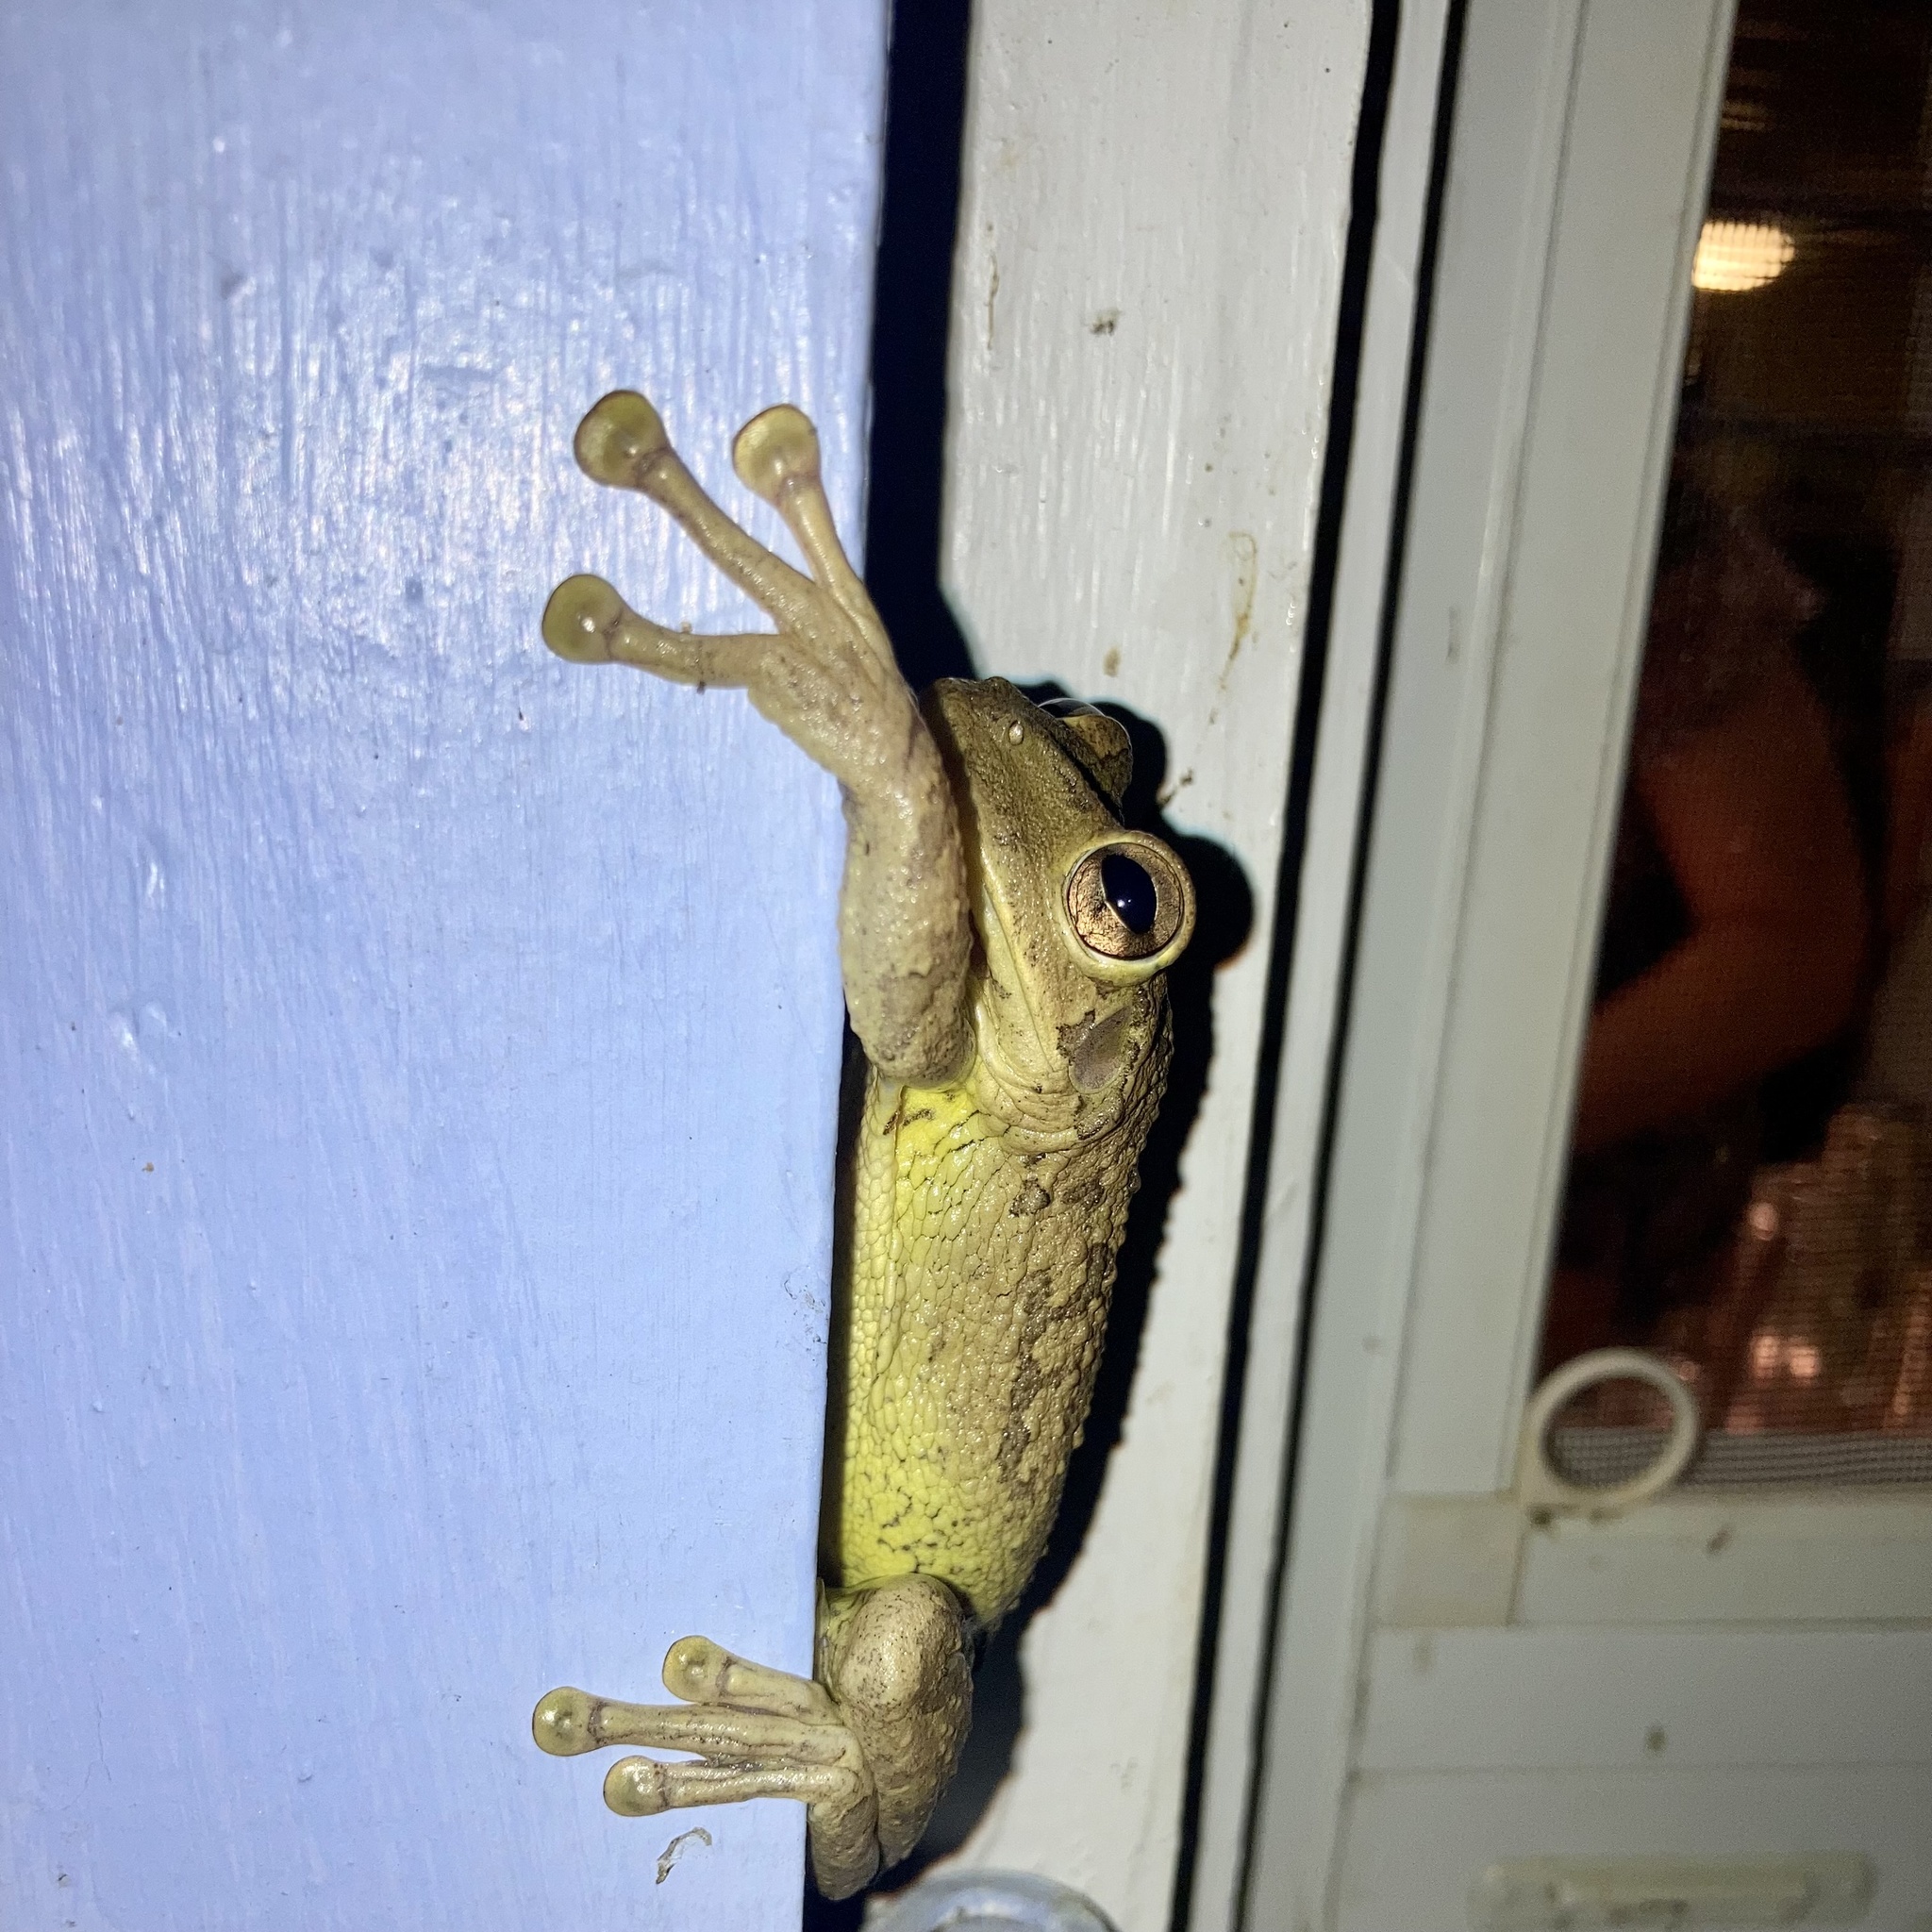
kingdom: Animalia
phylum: Chordata
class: Amphibia
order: Anura
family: Hylidae
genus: Osteopilus
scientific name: Osteopilus septentrionalis
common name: Cuban treefrog
